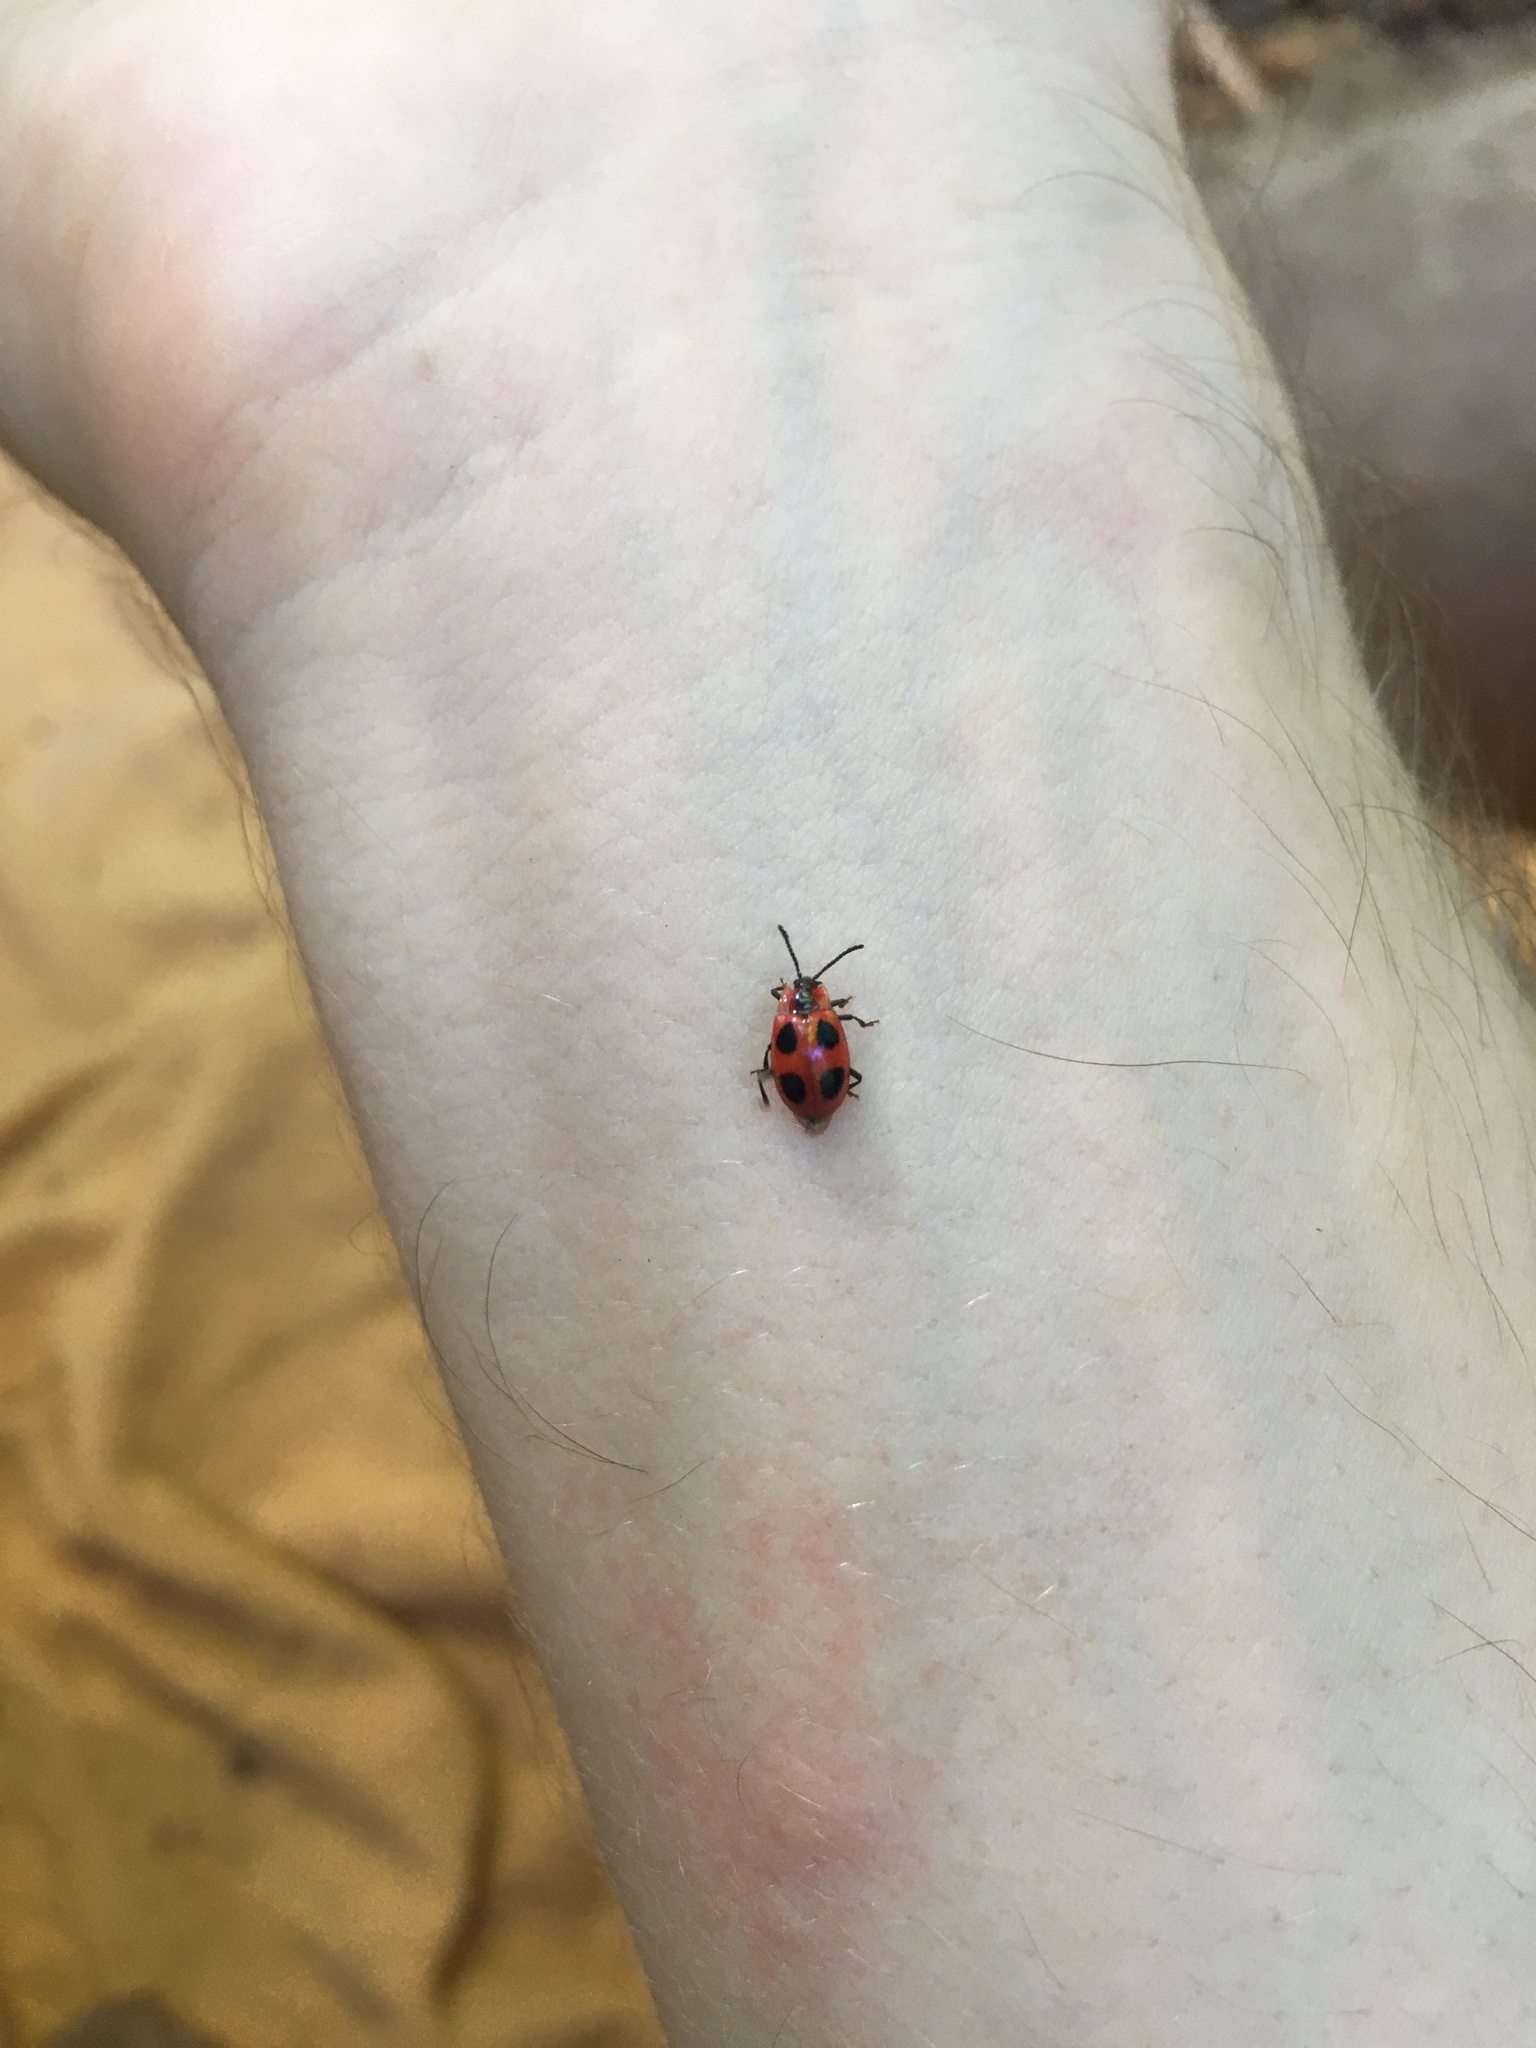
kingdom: Animalia
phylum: Arthropoda
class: Insecta
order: Coleoptera
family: Endomychidae
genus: Endomychus
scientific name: Endomychus coccineus
